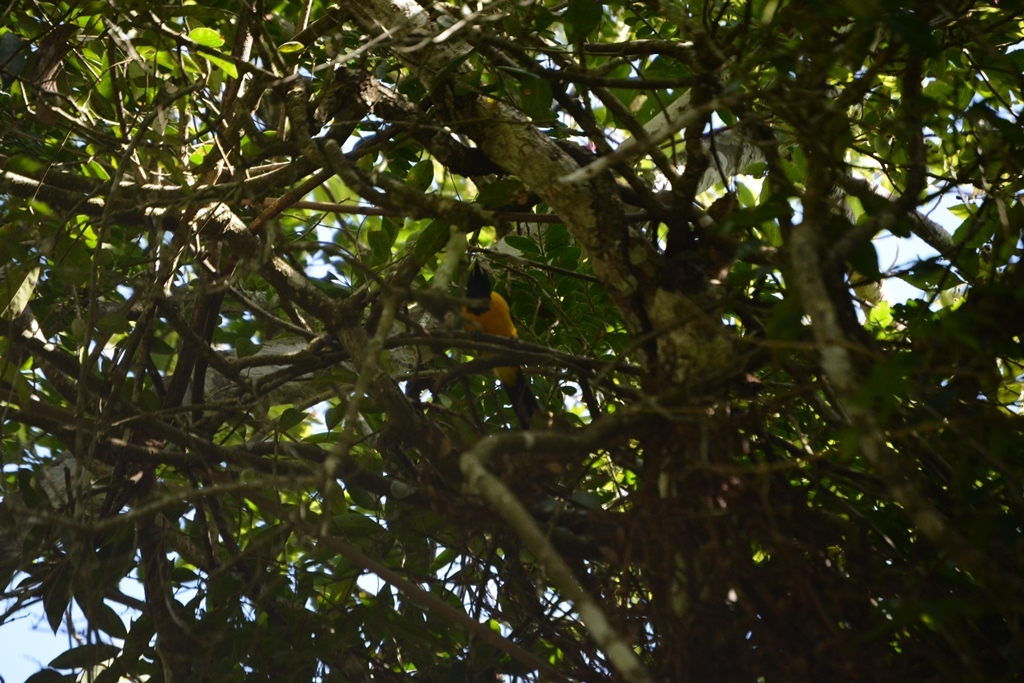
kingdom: Animalia
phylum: Chordata
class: Aves
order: Passeriformes
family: Icteridae
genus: Icterus
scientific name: Icterus maculialatus
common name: Bar-winged oriole
